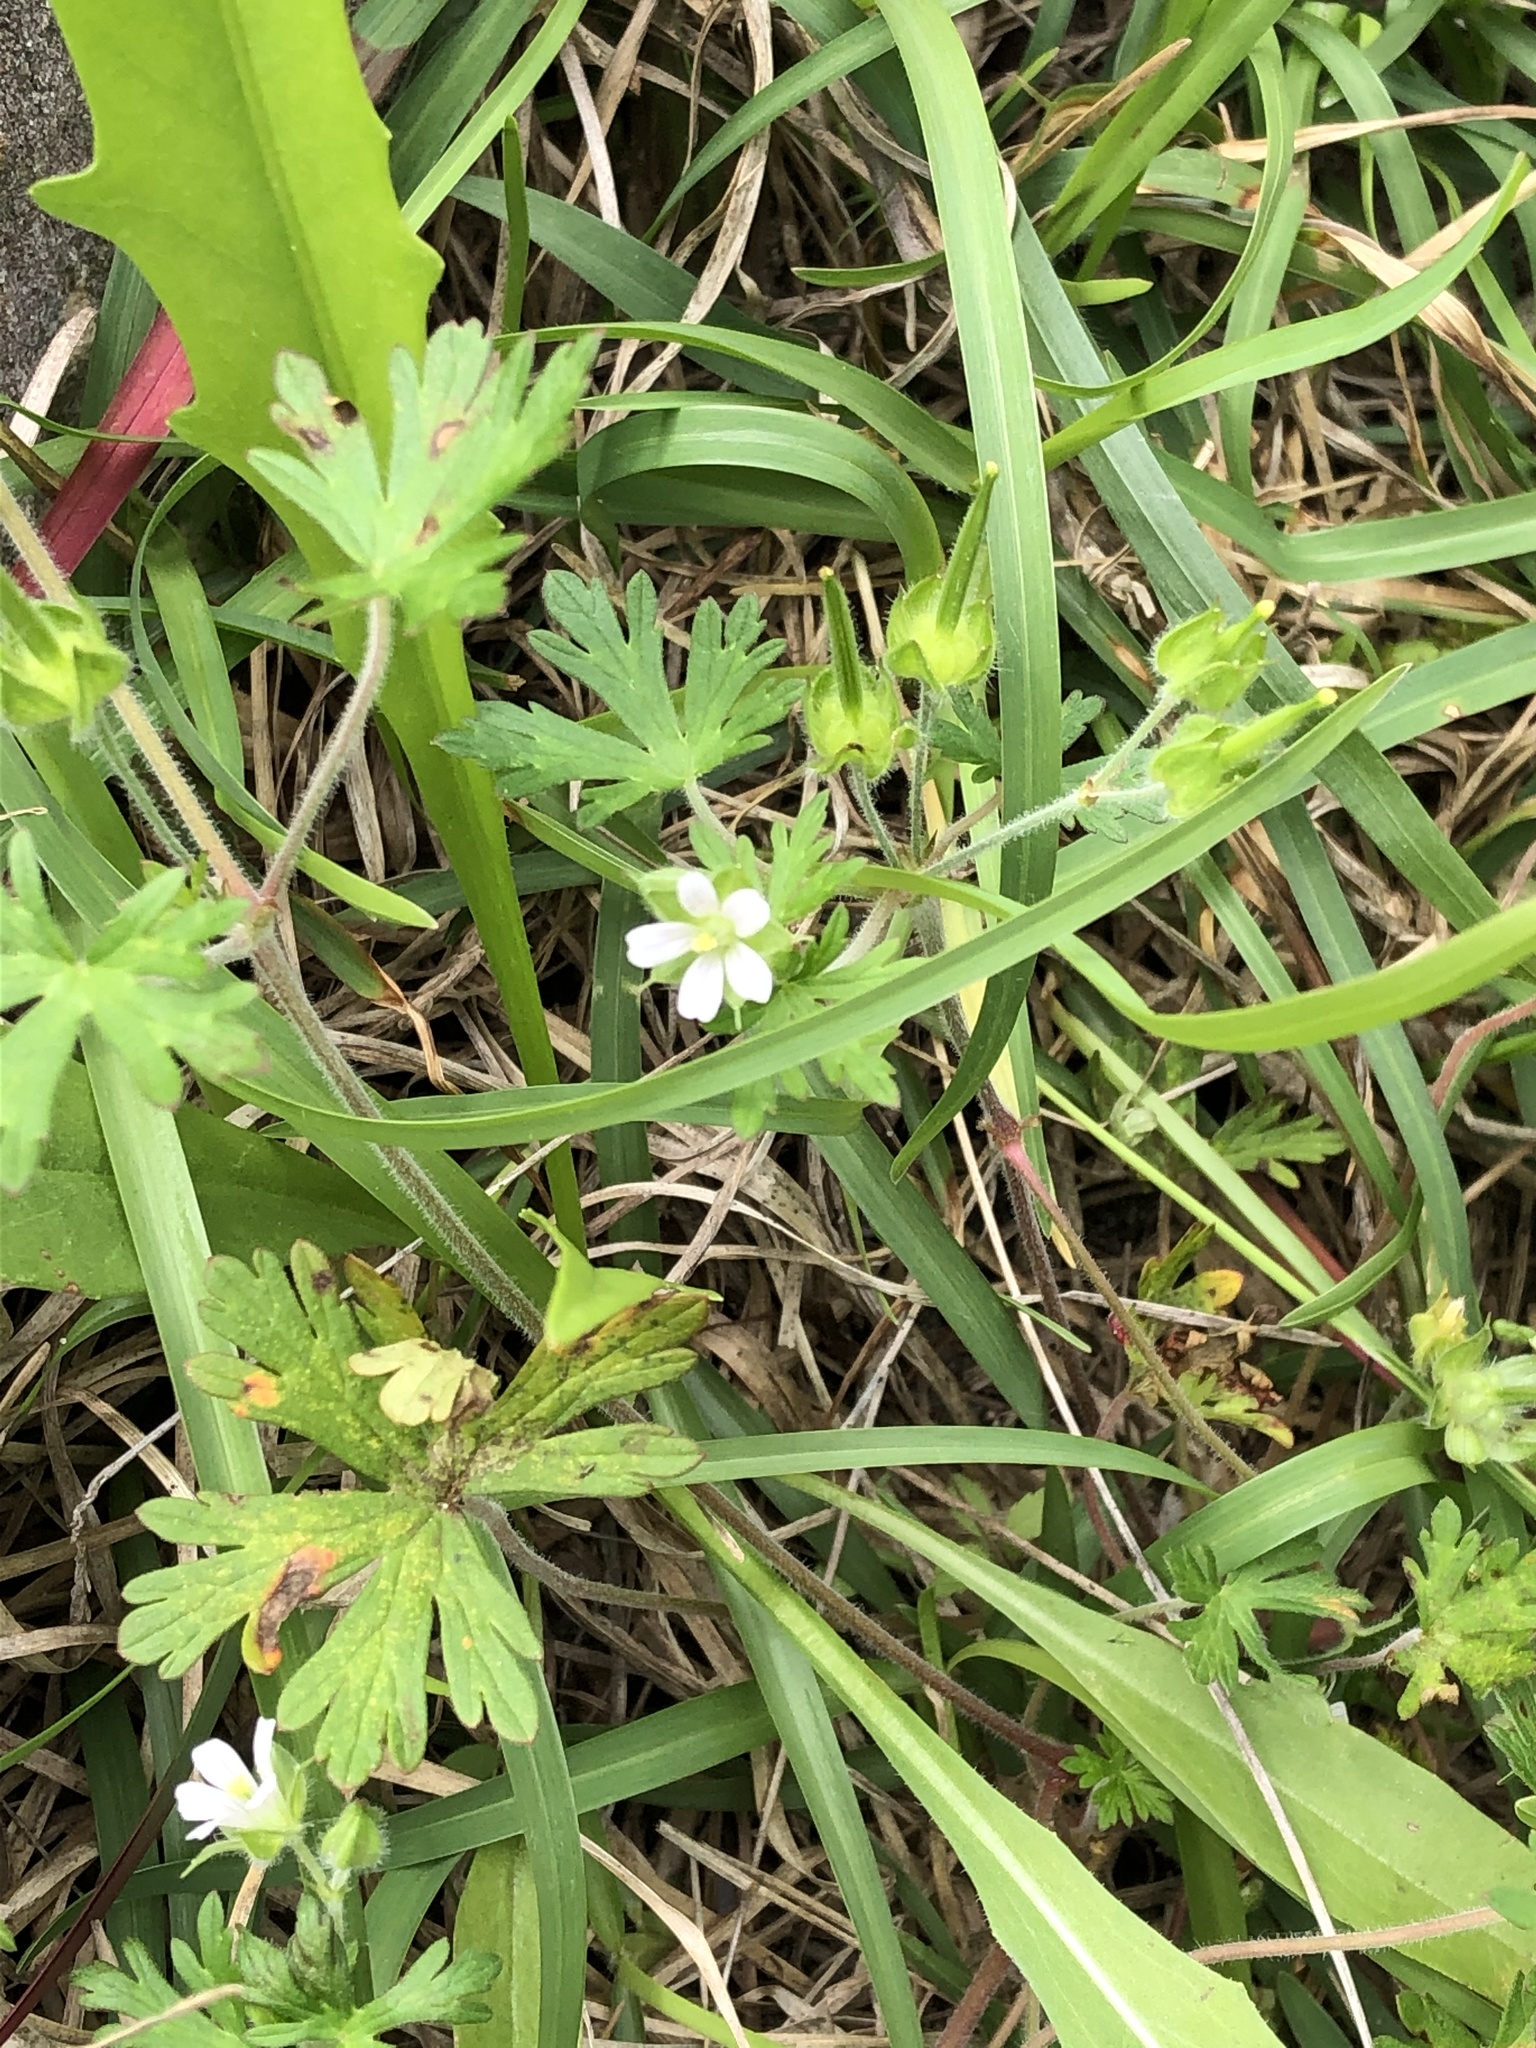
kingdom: Plantae
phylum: Tracheophyta
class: Magnoliopsida
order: Geraniales
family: Geraniaceae
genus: Geranium
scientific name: Geranium carolinianum
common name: Carolina crane's-bill
